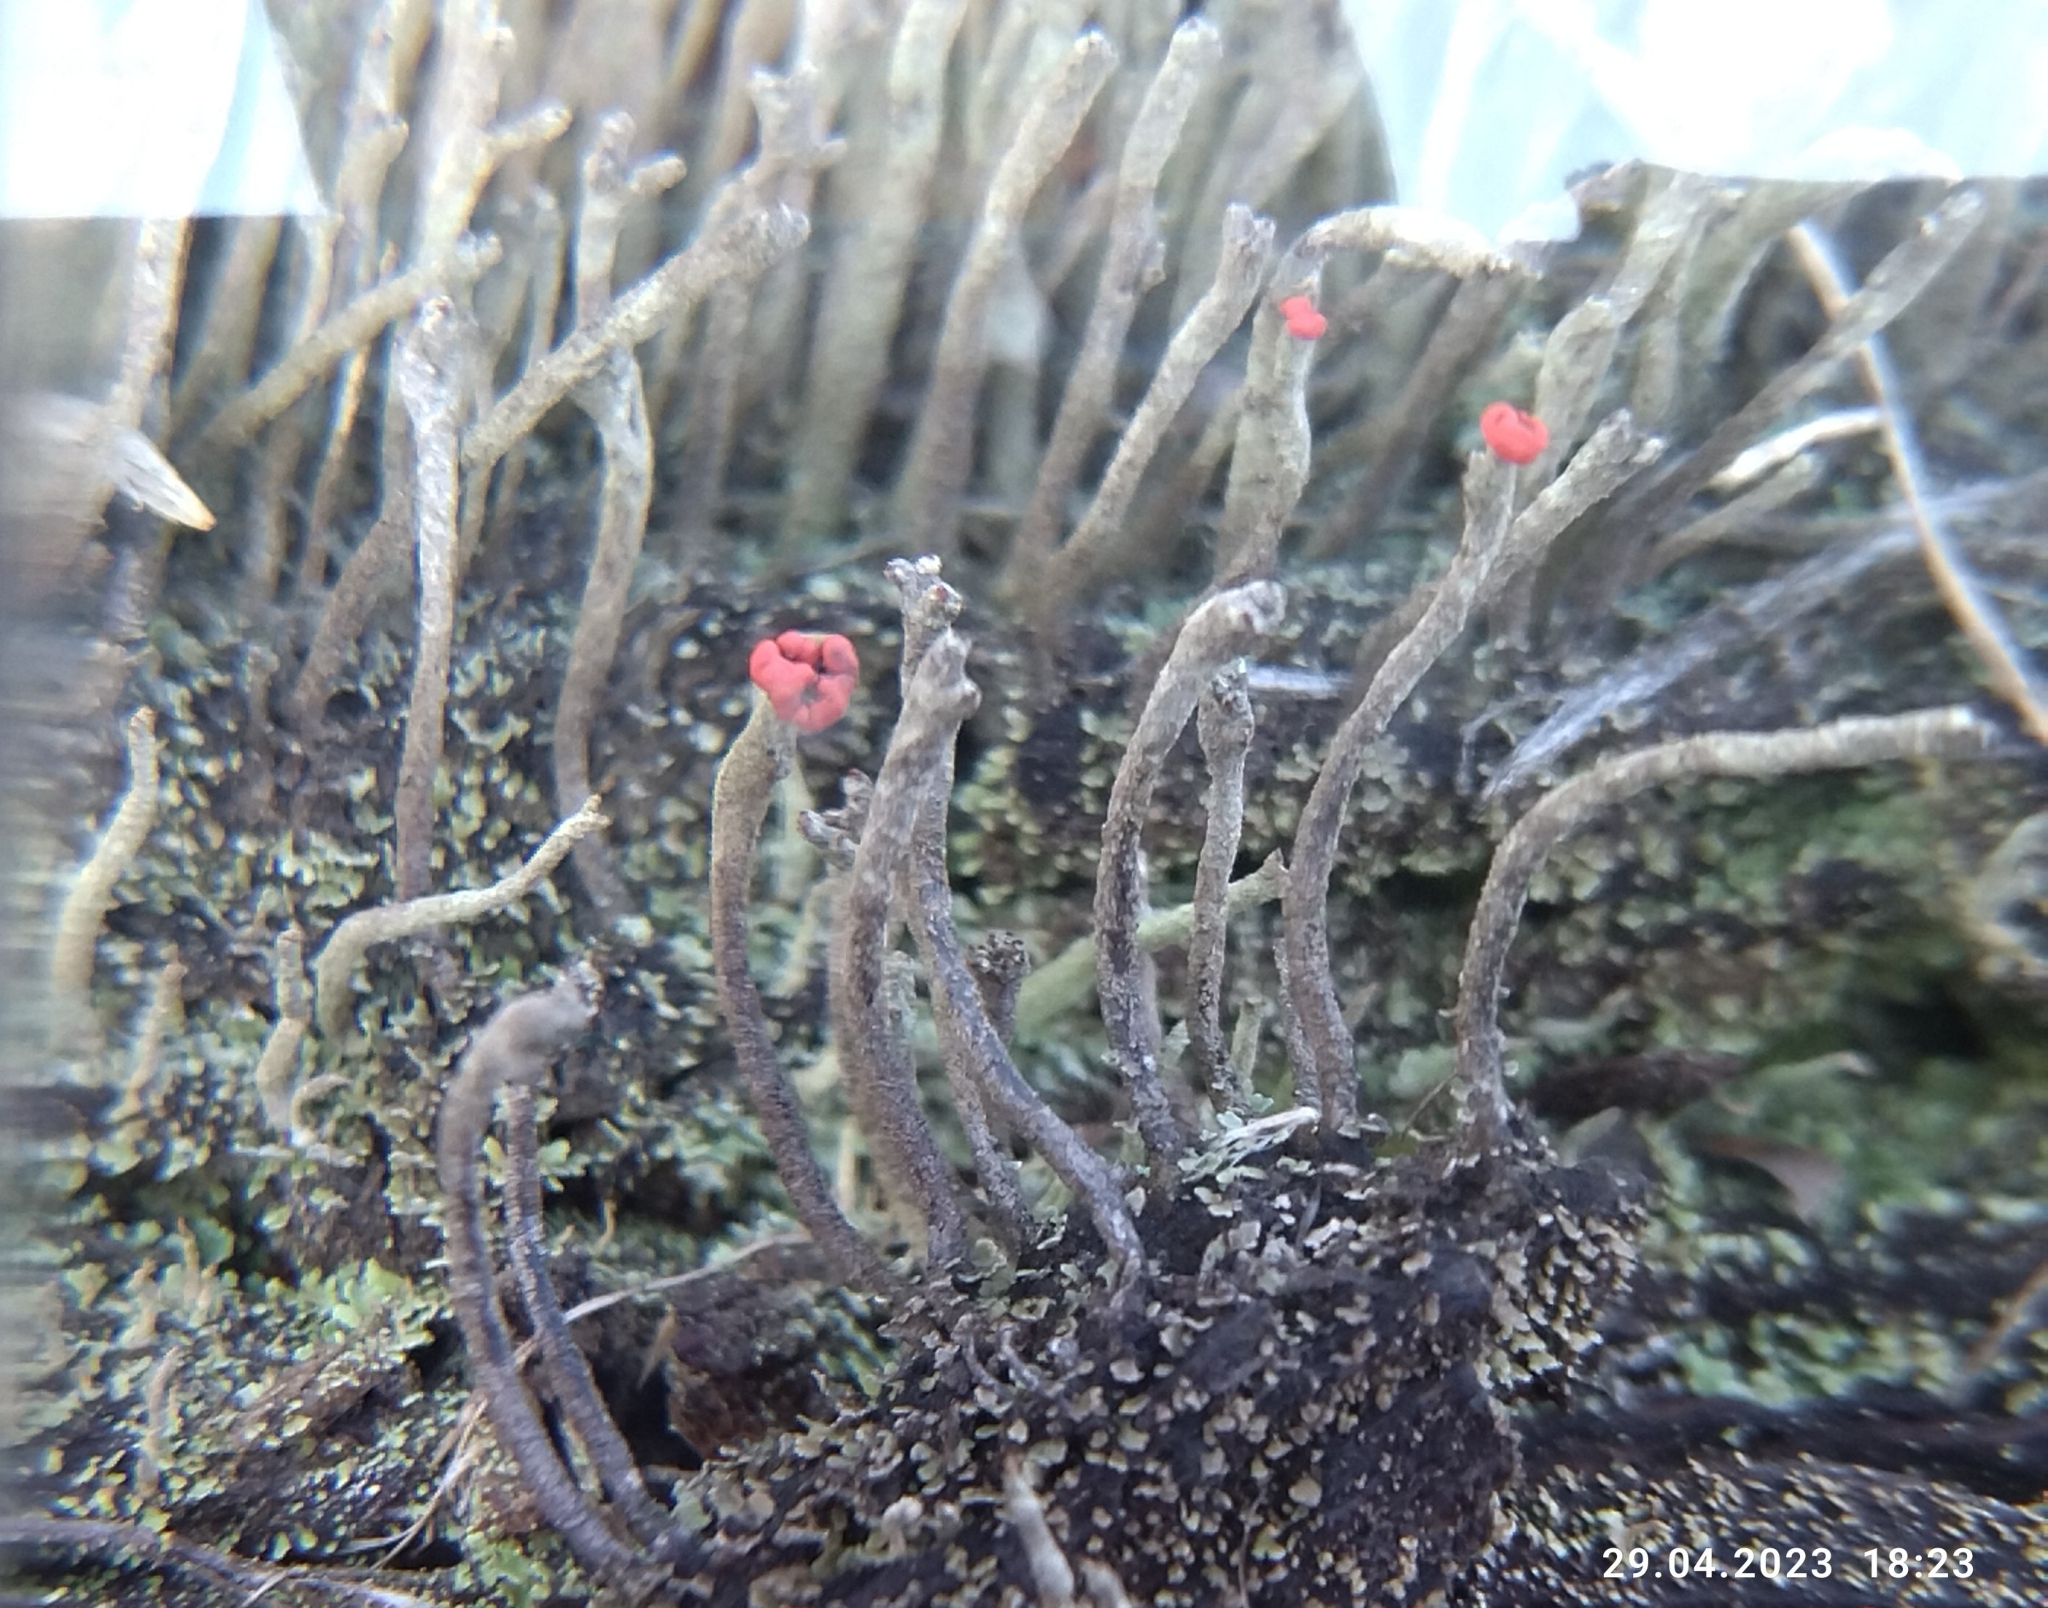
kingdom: Fungi
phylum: Ascomycota
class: Lecanoromycetes
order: Lecanorales
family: Cladoniaceae
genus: Cladonia
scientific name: Cladonia macilenta
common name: Lipstick powderhorn
